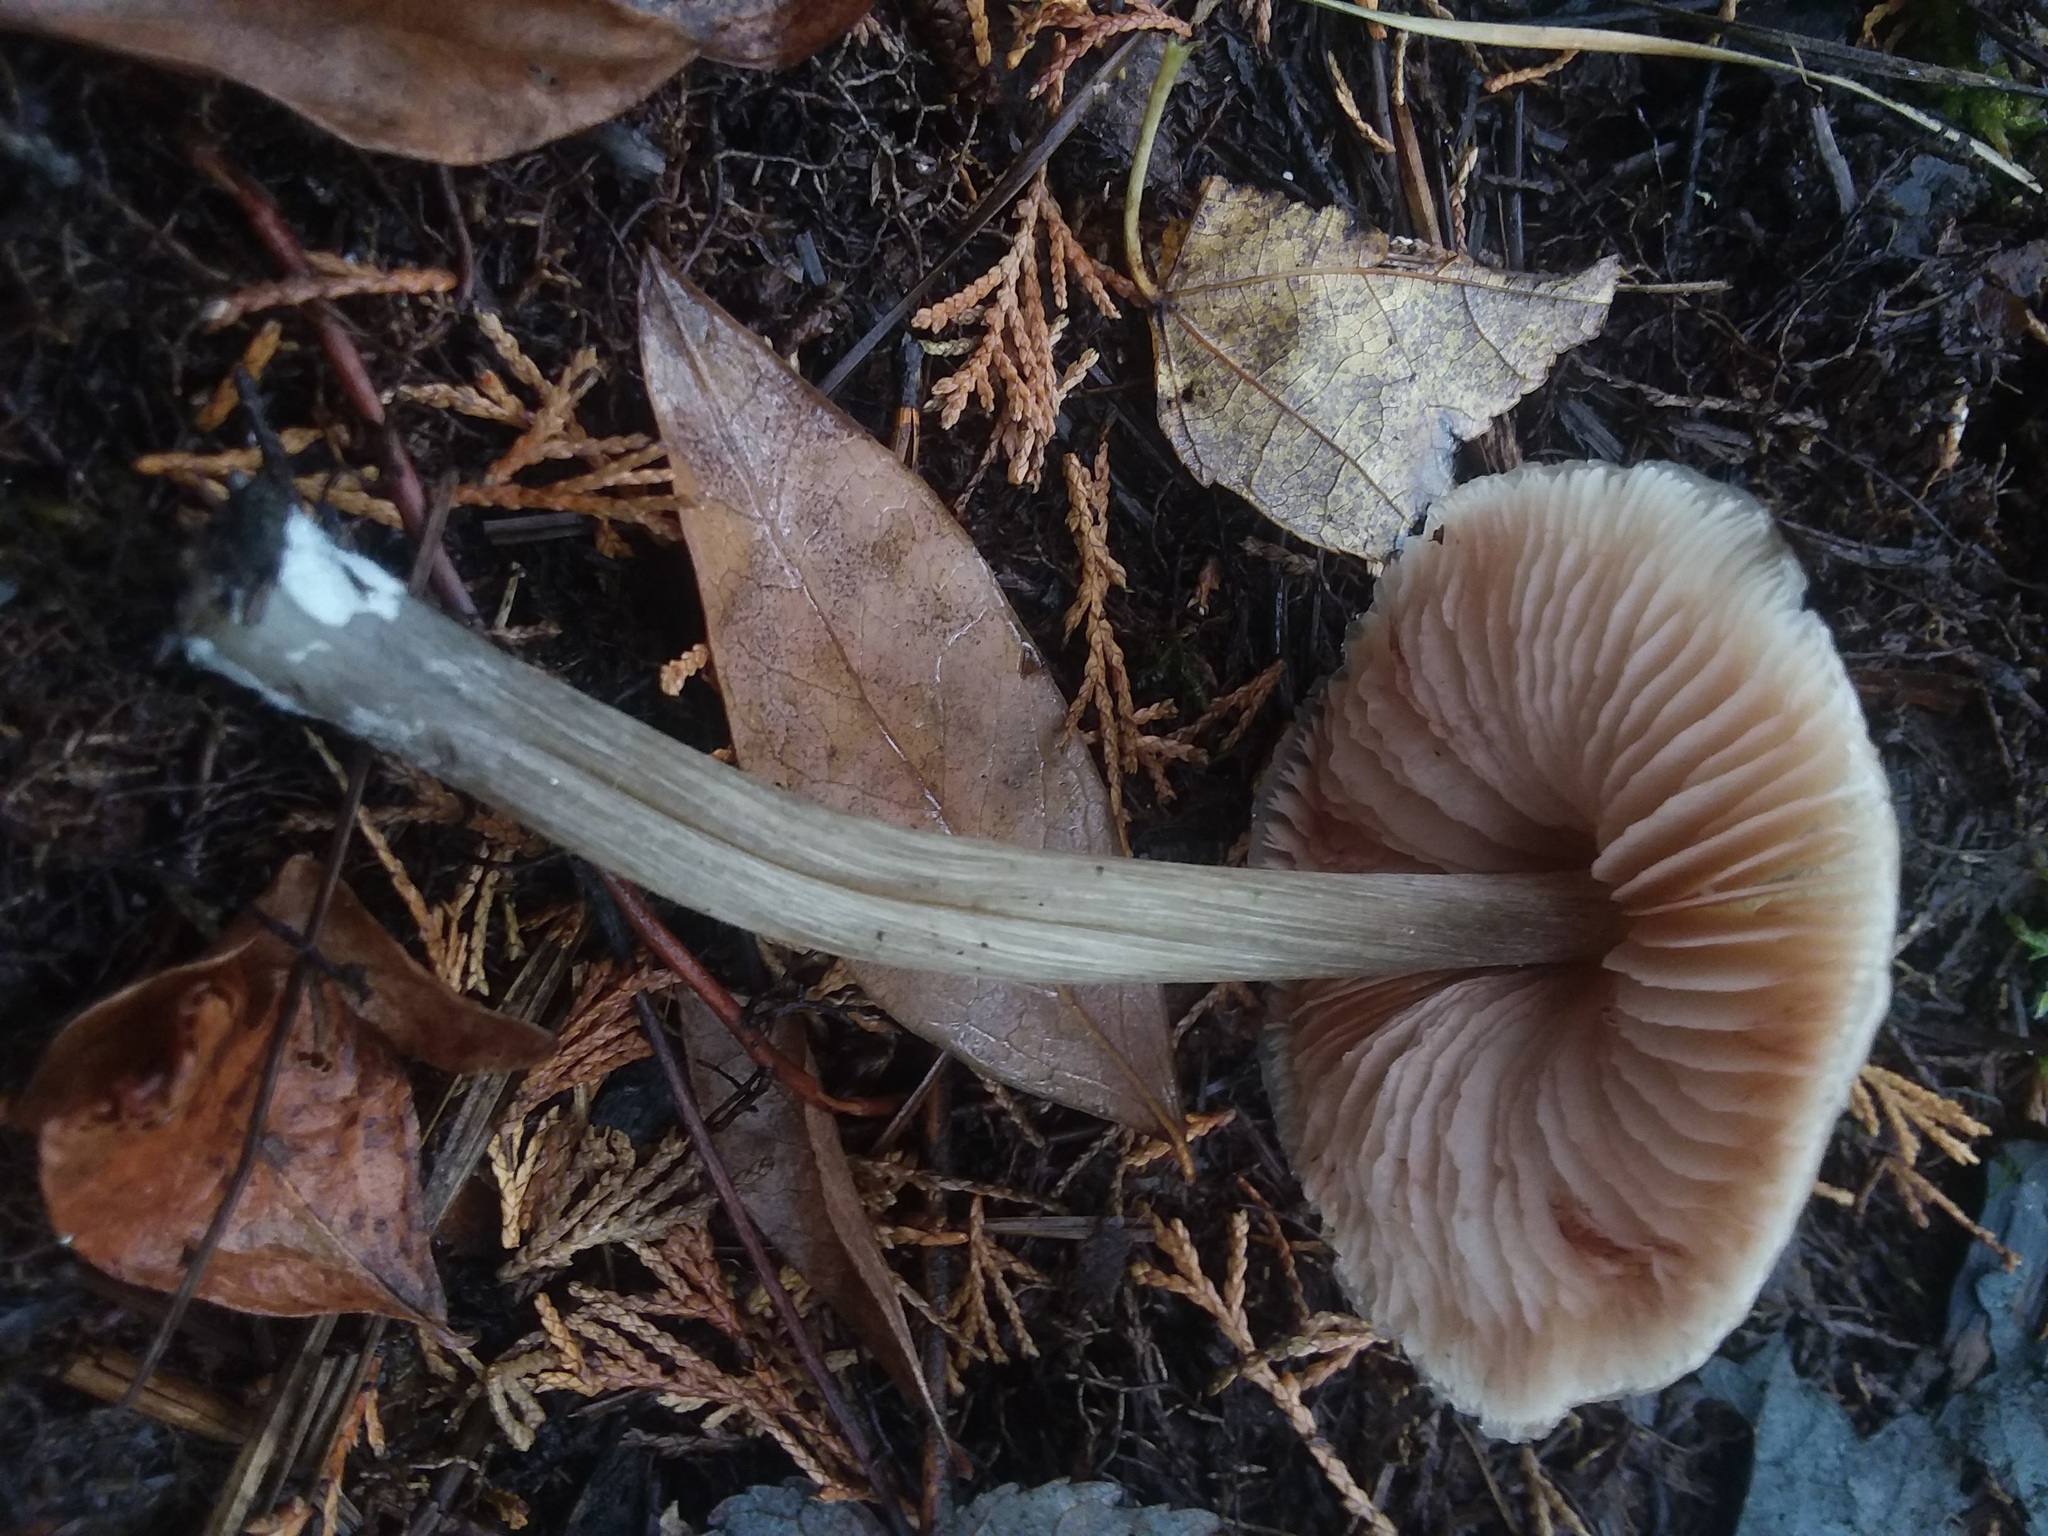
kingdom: Fungi
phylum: Basidiomycota
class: Agaricomycetes
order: Agaricales
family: Entolomataceae
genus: Entoloma
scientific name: Entoloma strictius
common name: Straight-stalked entoloma
